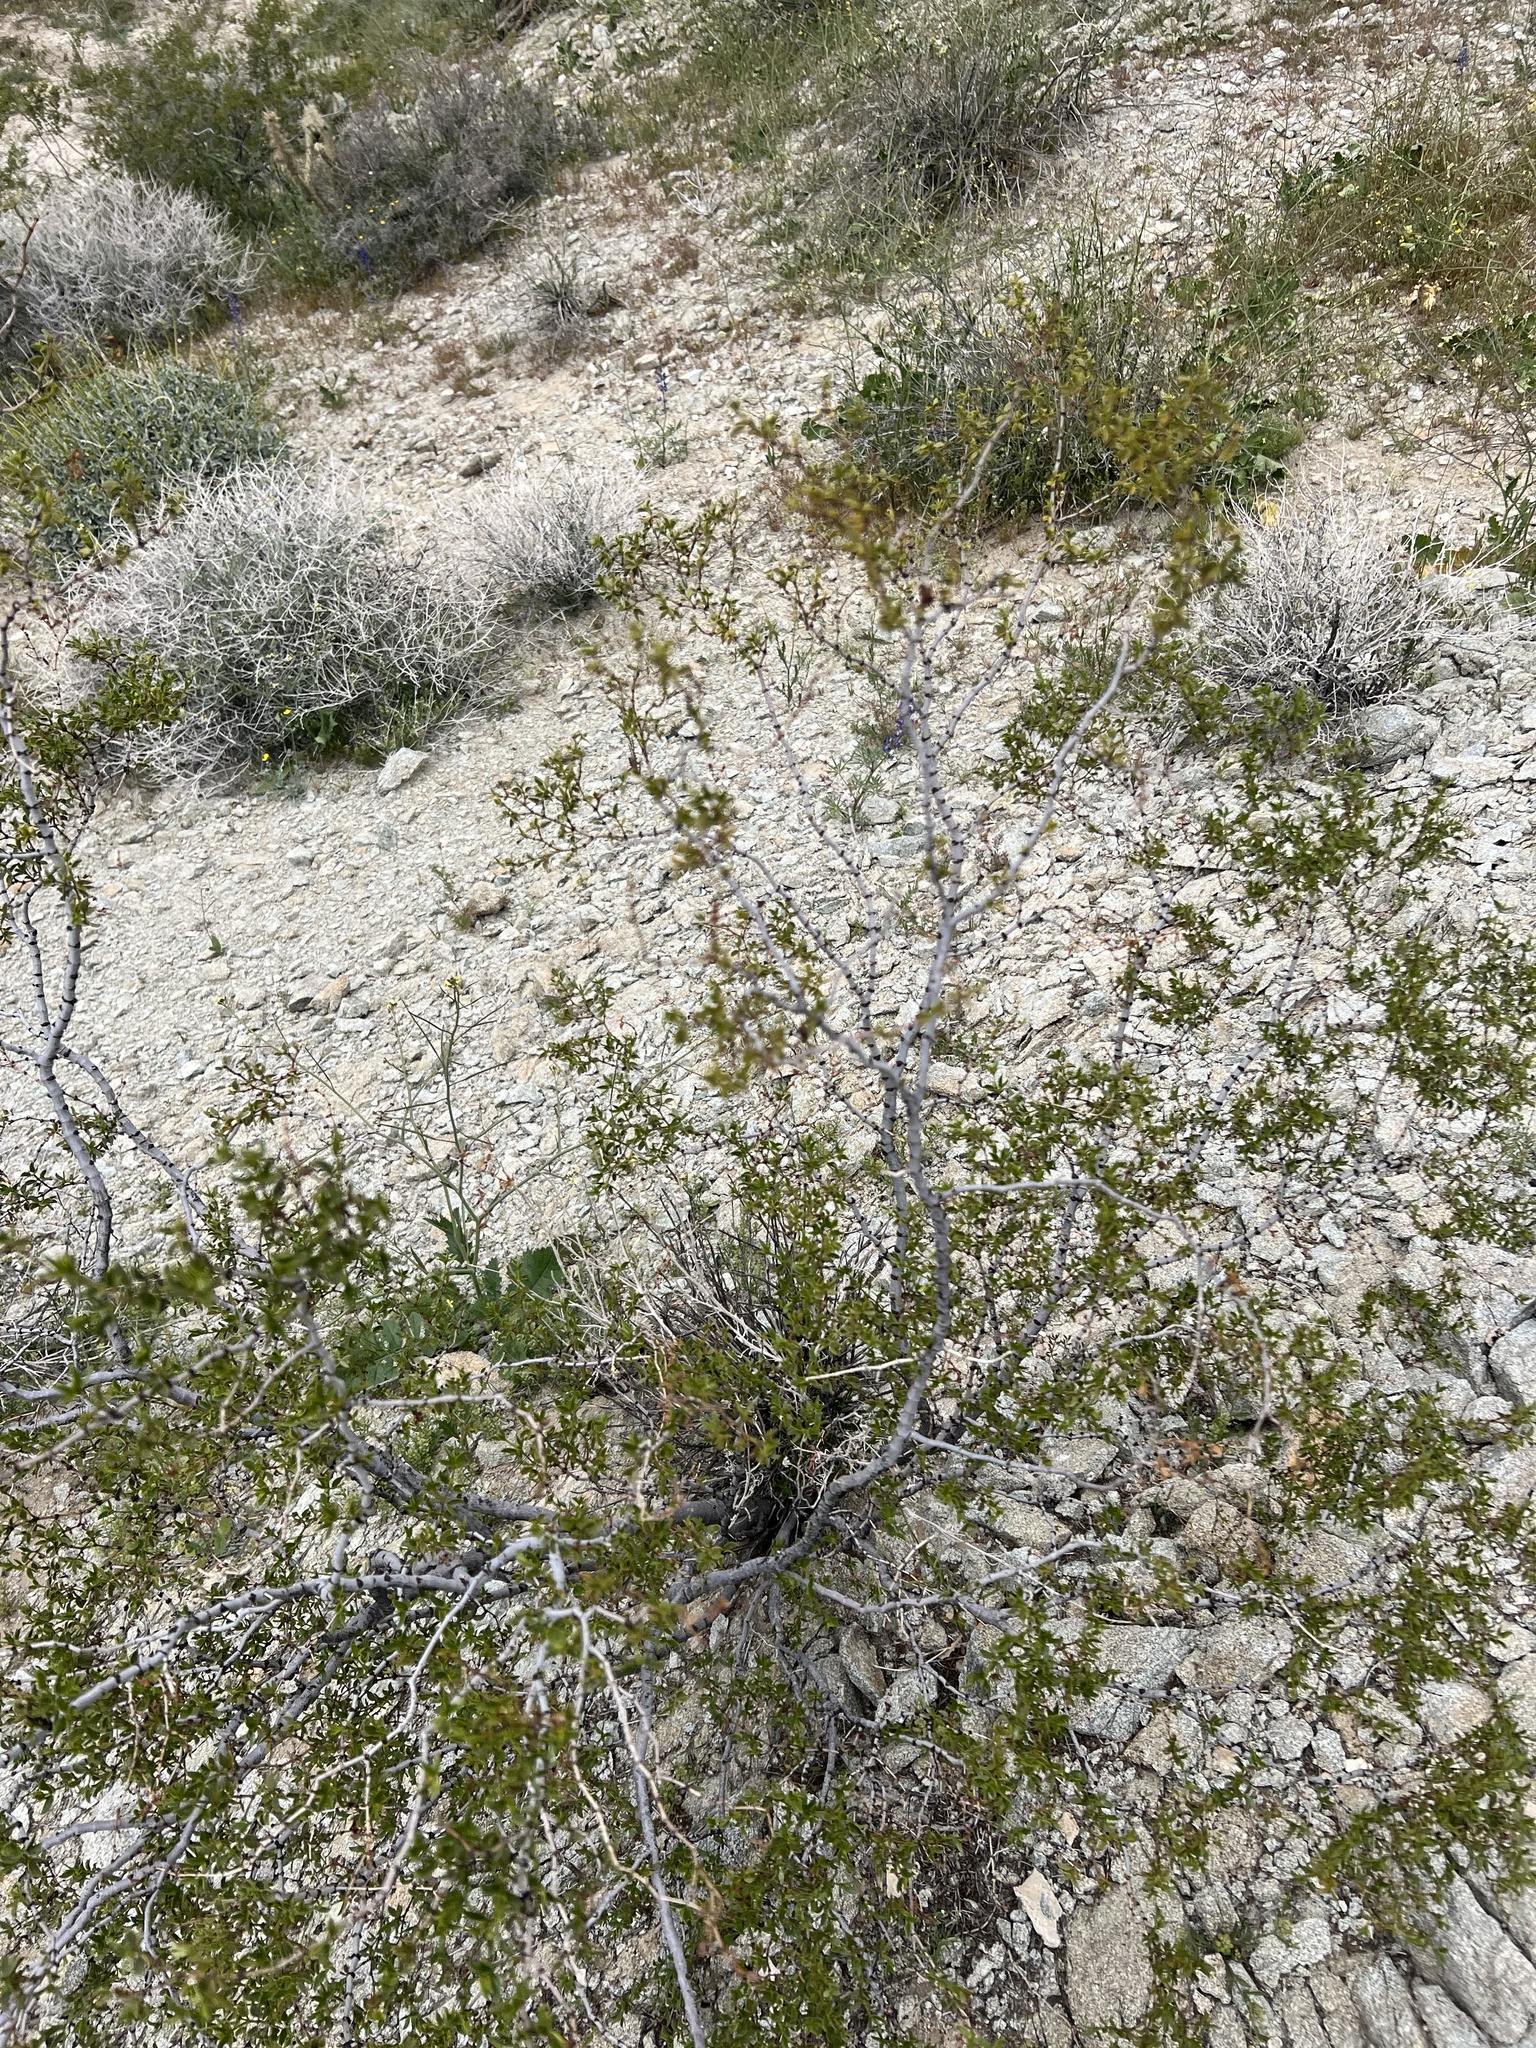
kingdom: Plantae
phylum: Tracheophyta
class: Magnoliopsida
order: Zygophyllales
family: Zygophyllaceae
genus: Larrea
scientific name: Larrea tridentata
